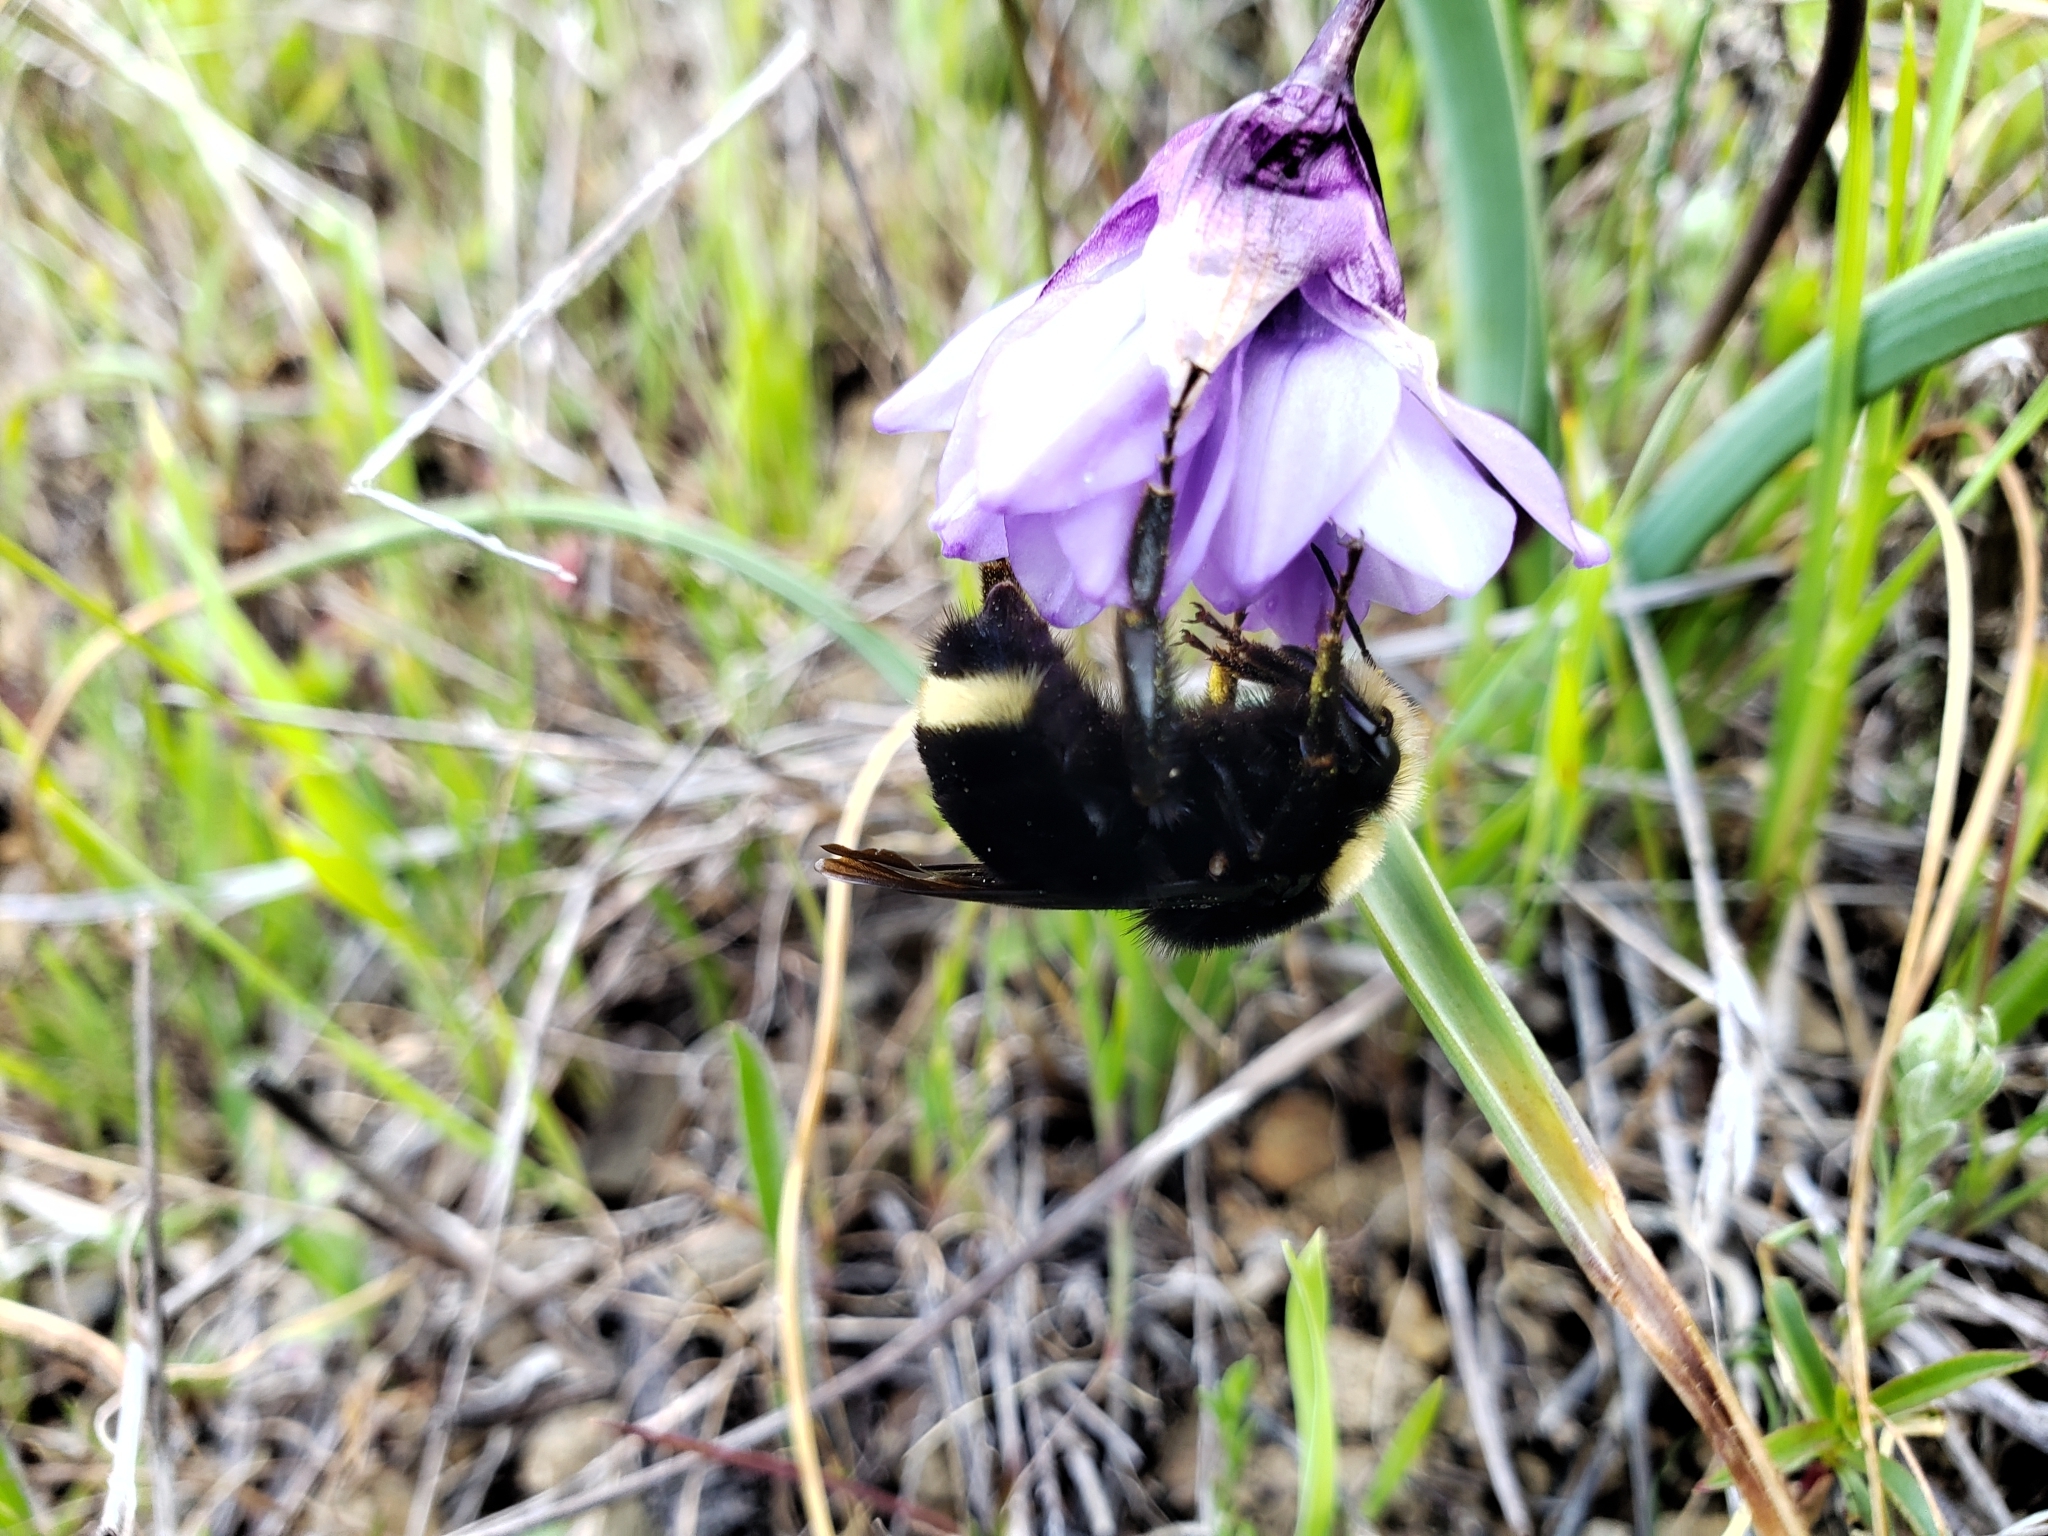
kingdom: Animalia
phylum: Arthropoda
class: Insecta
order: Hymenoptera
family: Apidae
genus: Pyrobombus
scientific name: Pyrobombus
